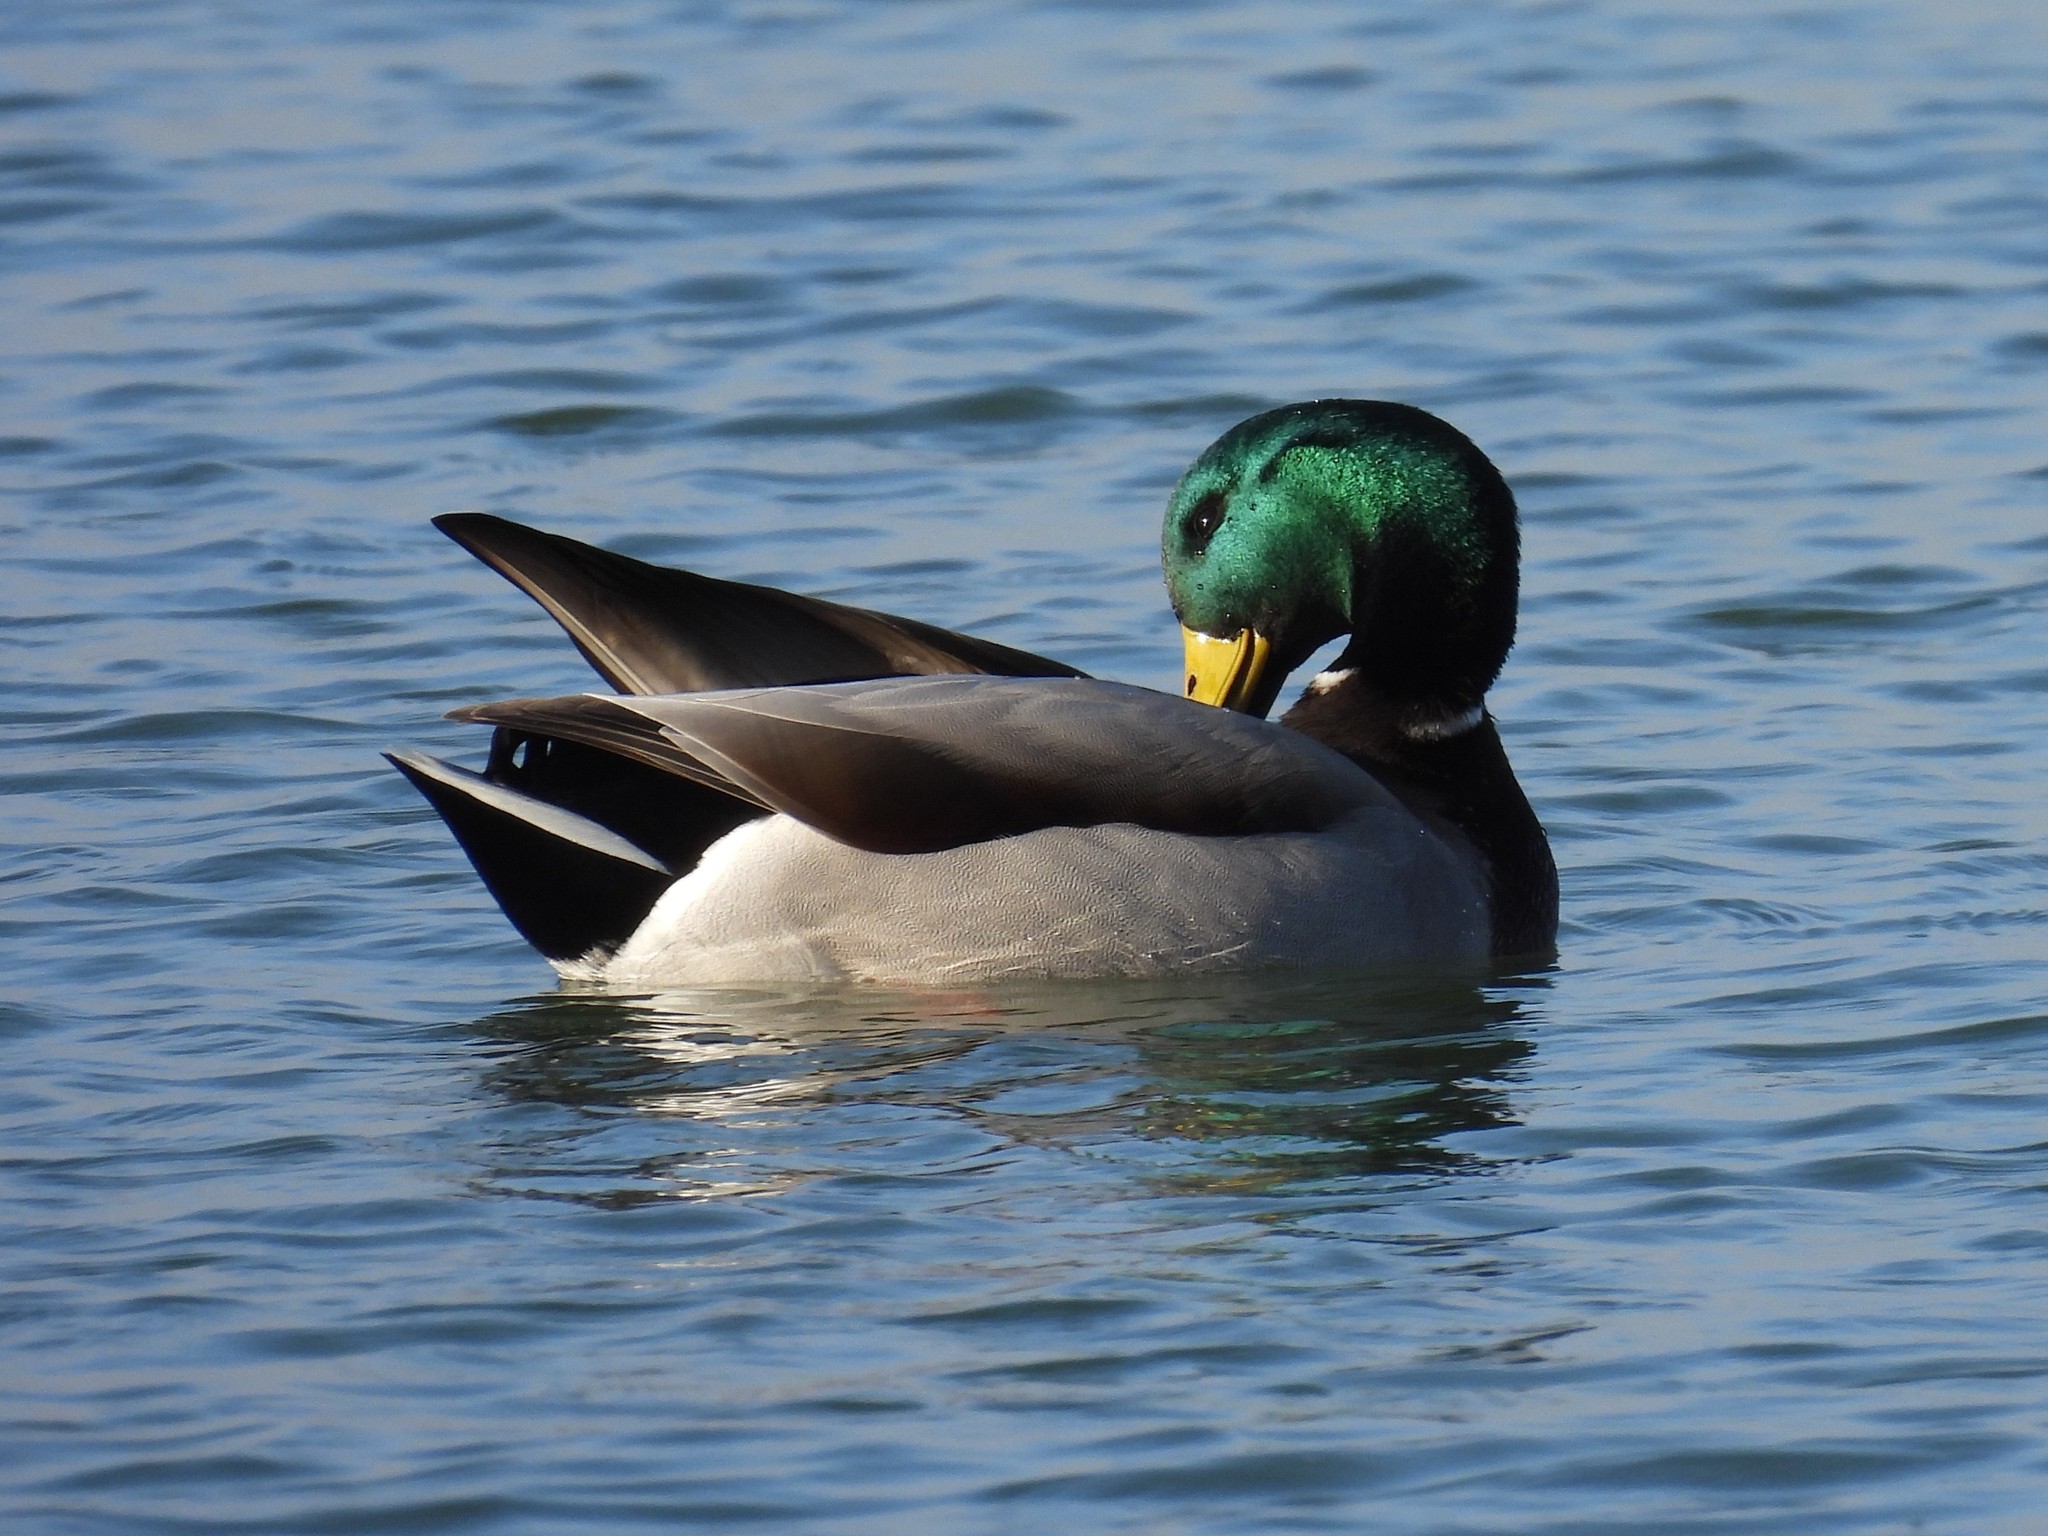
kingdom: Animalia
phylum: Chordata
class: Aves
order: Anseriformes
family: Anatidae
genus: Anas
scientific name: Anas platyrhynchos
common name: Mallard
